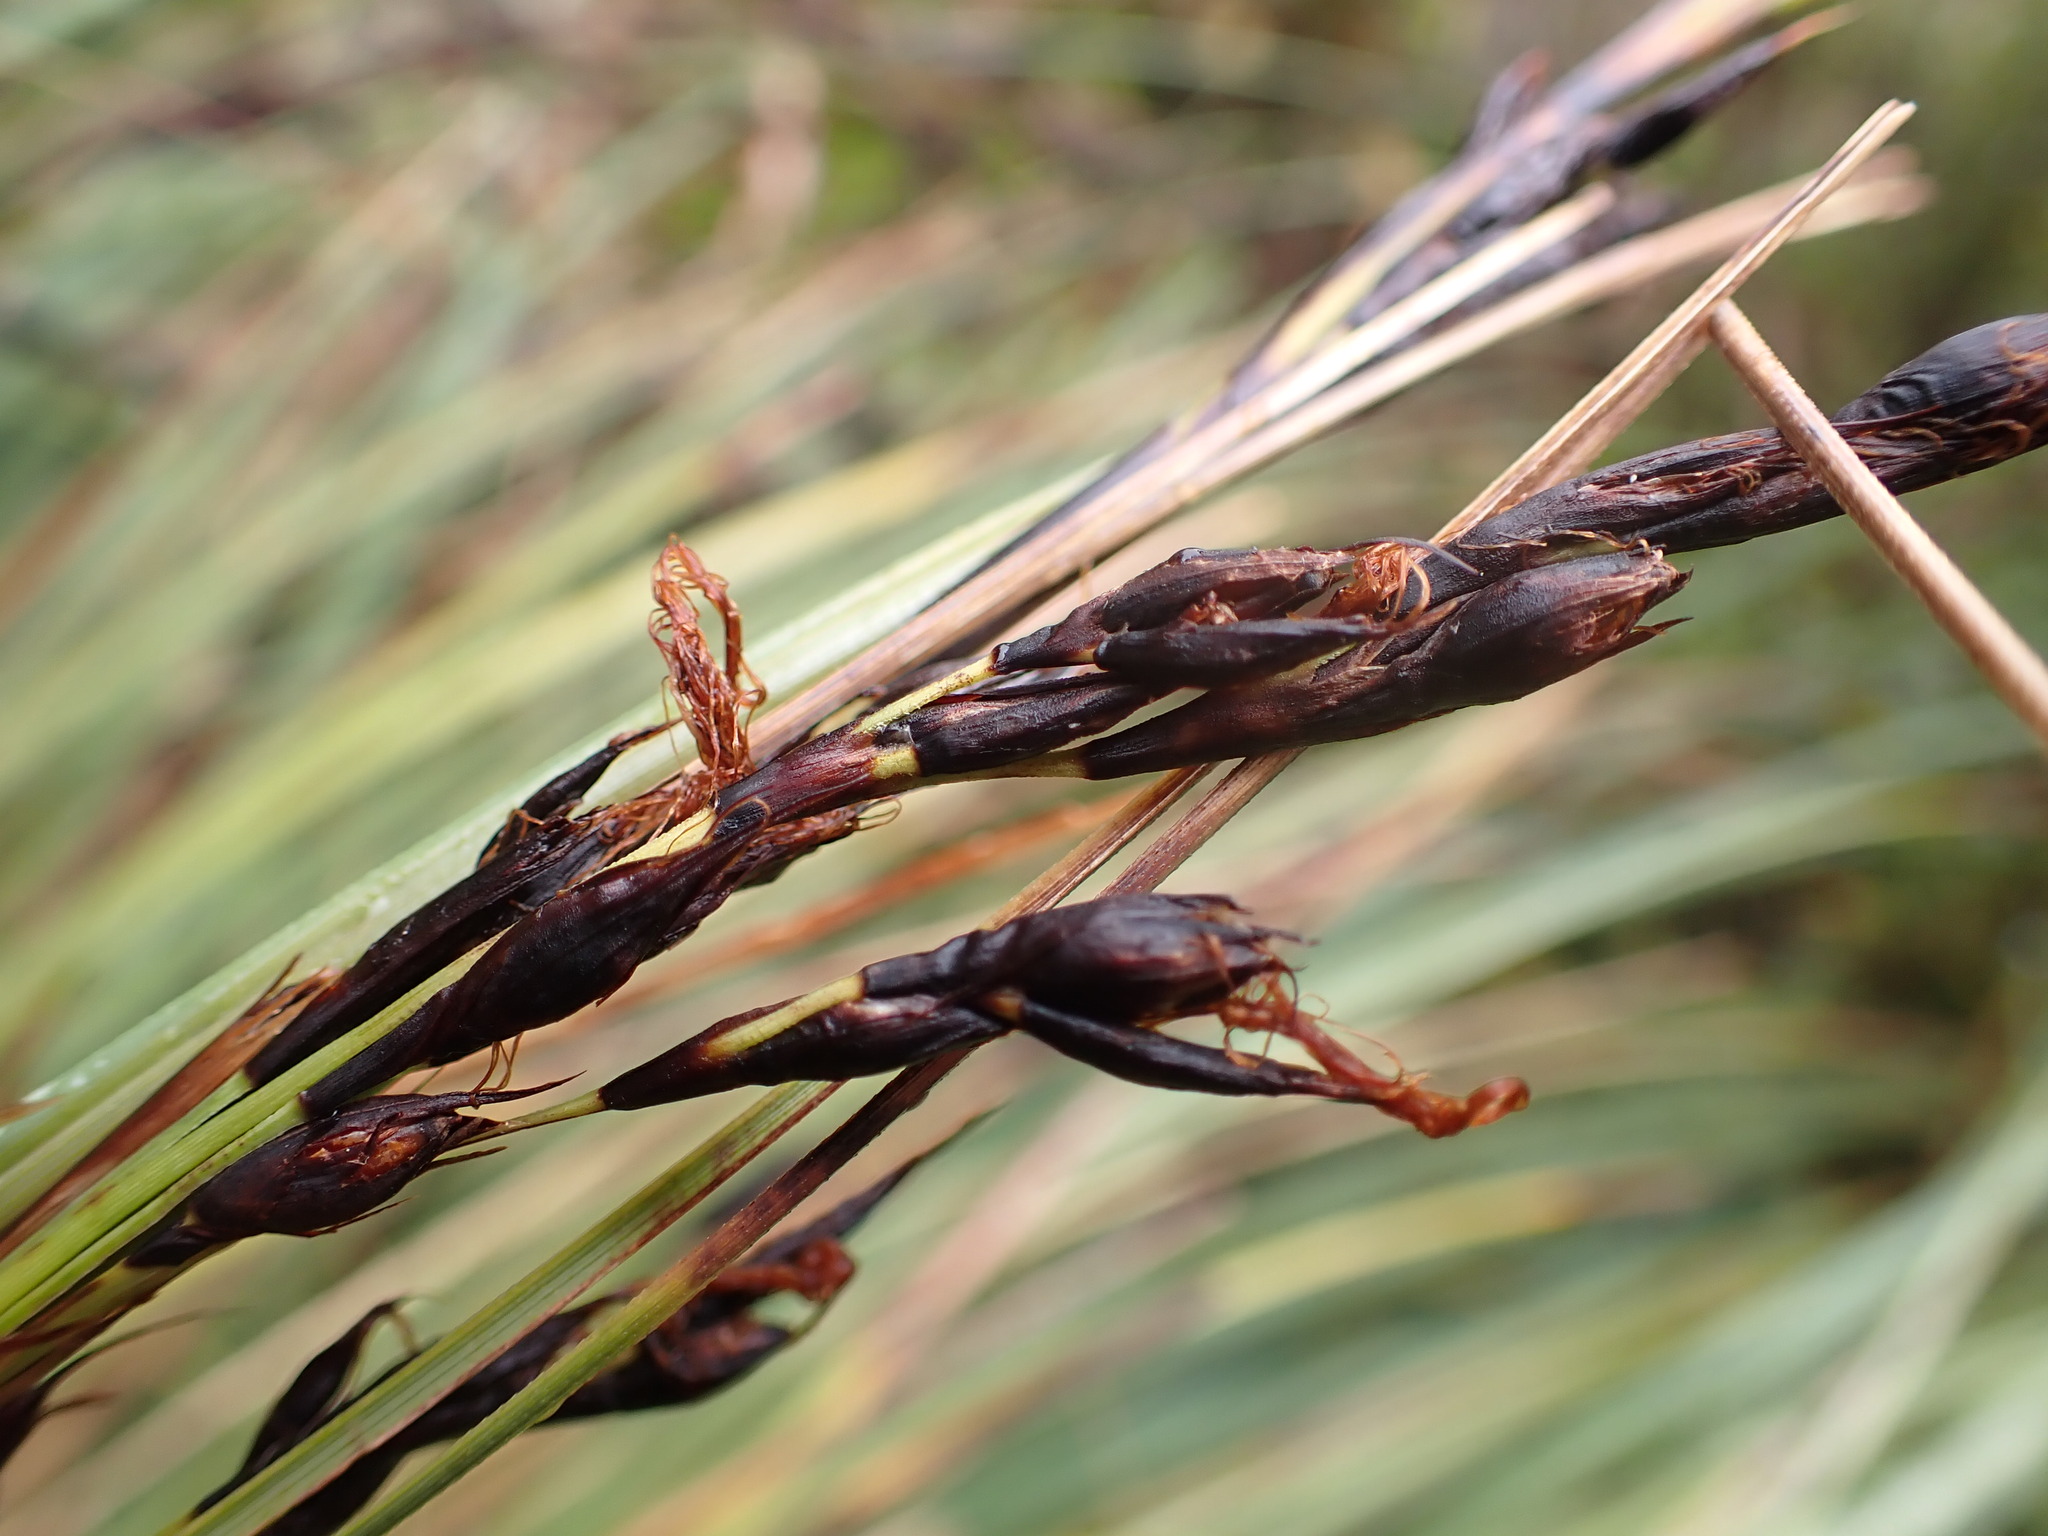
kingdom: Plantae
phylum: Tracheophyta
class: Liliopsida
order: Poales
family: Cyperaceae
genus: Gahnia
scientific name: Gahnia procera
